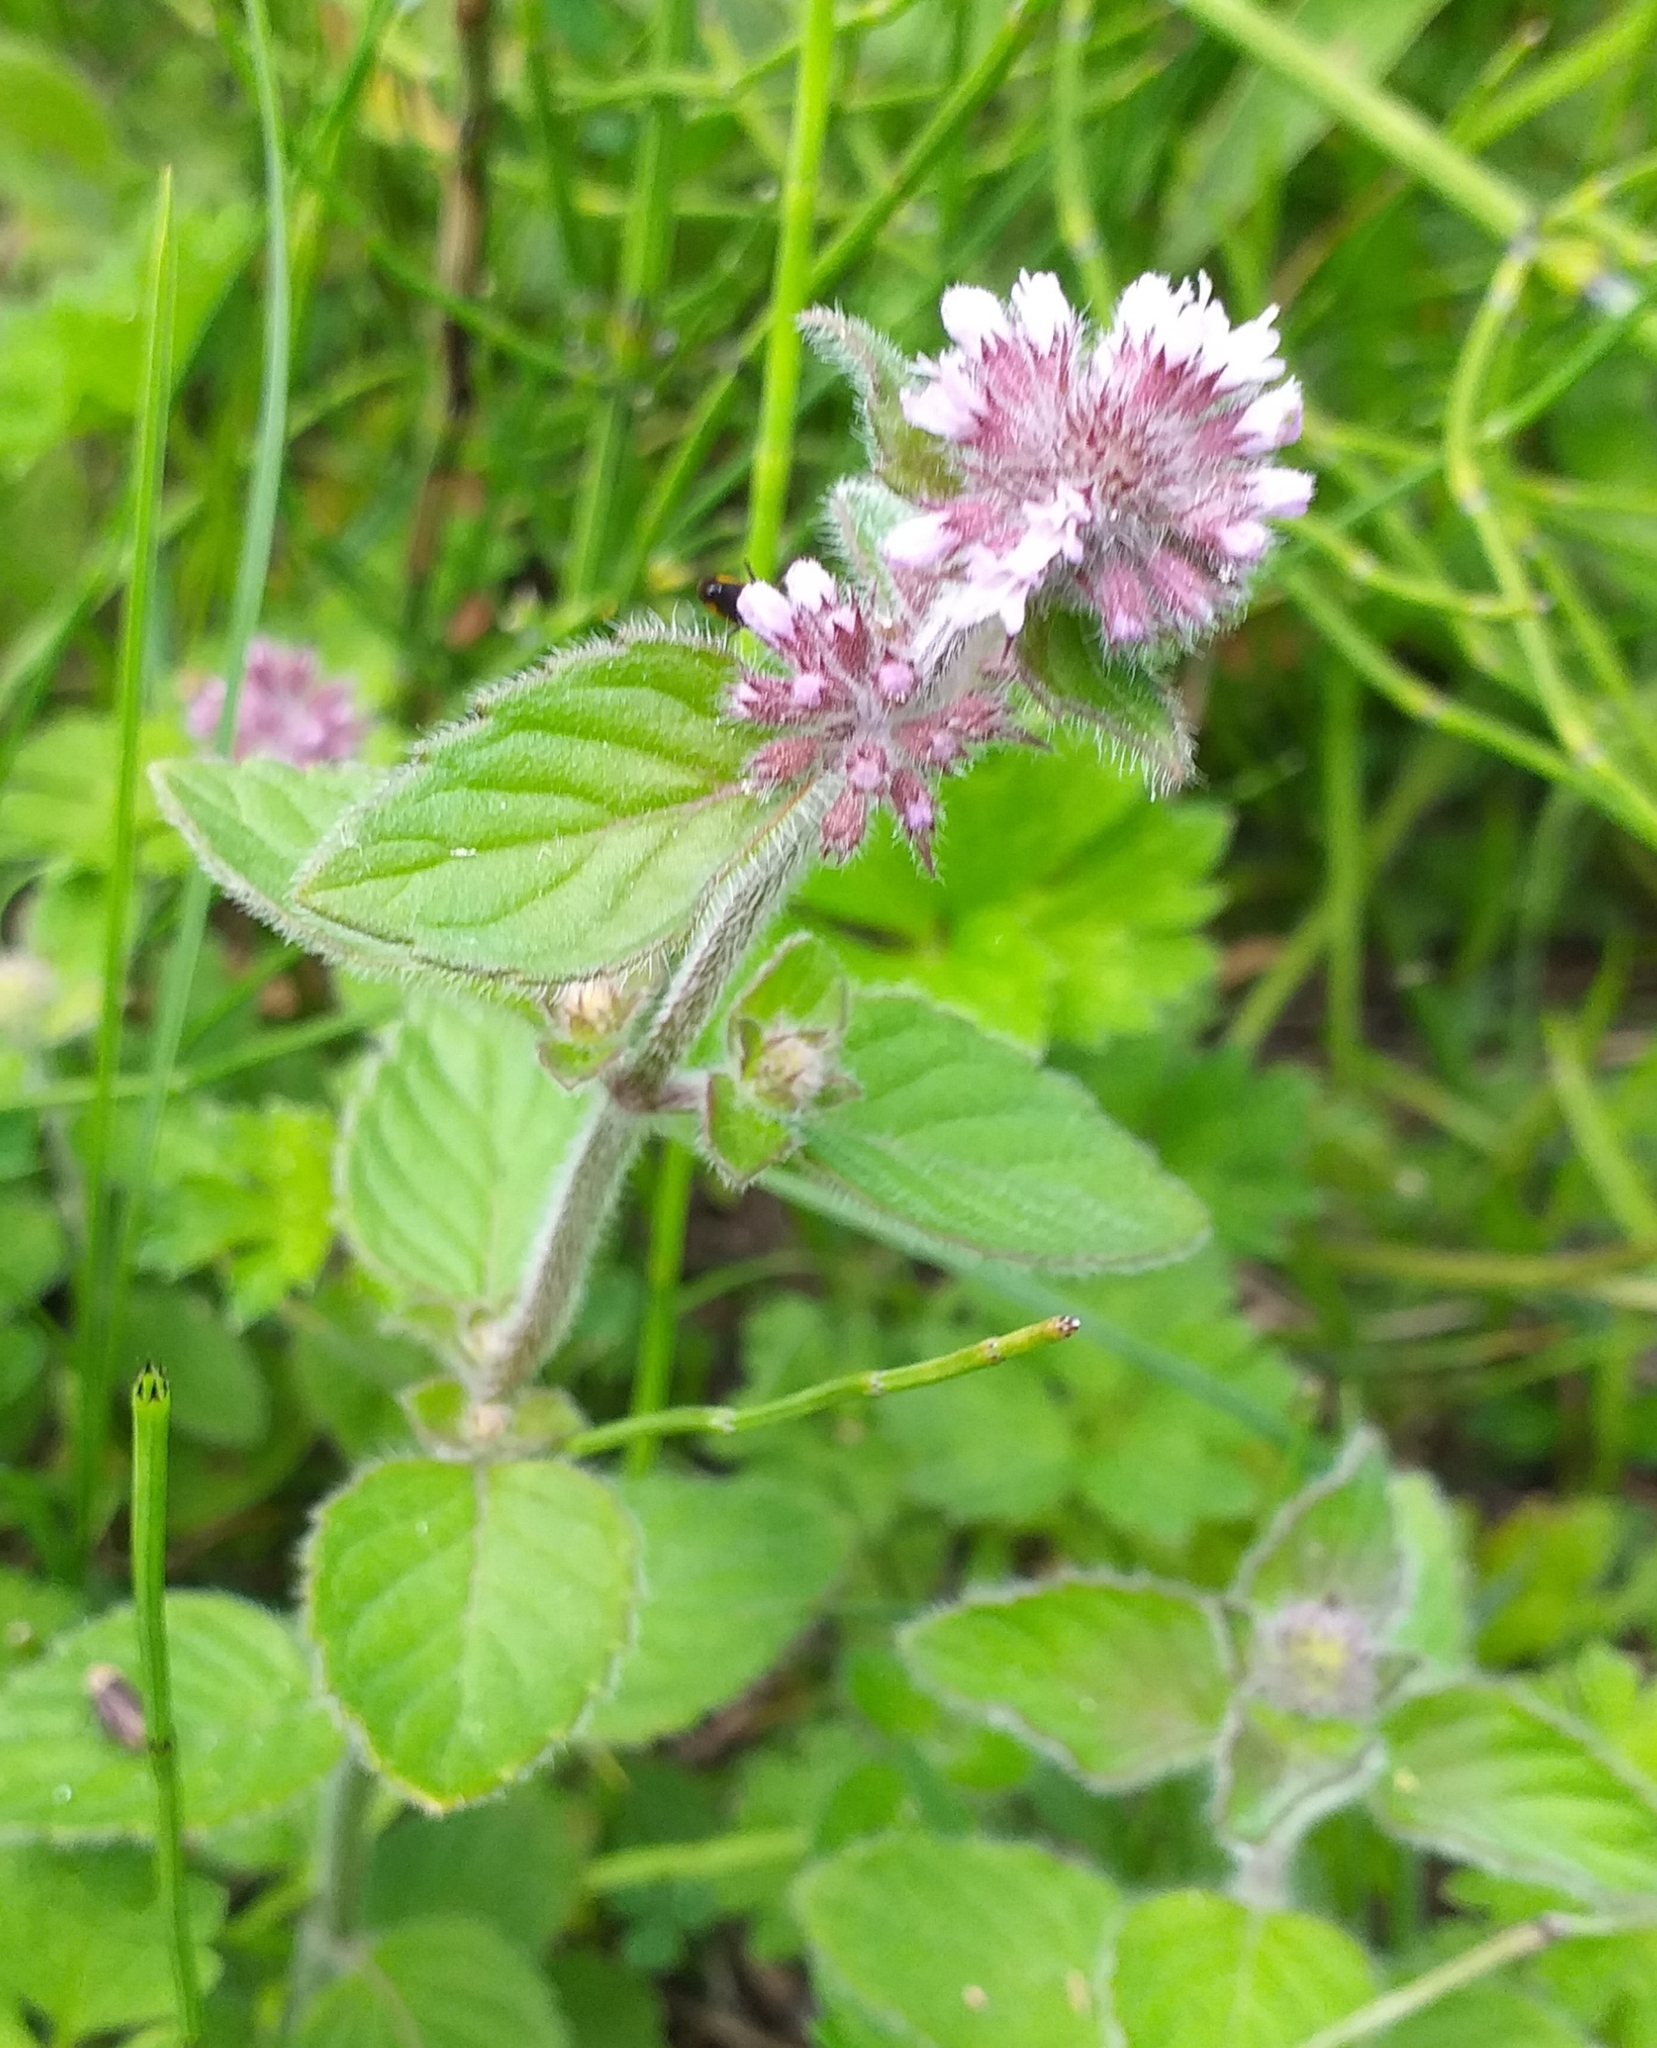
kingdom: Plantae
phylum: Tracheophyta
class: Magnoliopsida
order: Lamiales
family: Lamiaceae
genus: Mentha
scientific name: Mentha aquatica
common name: Water mint
